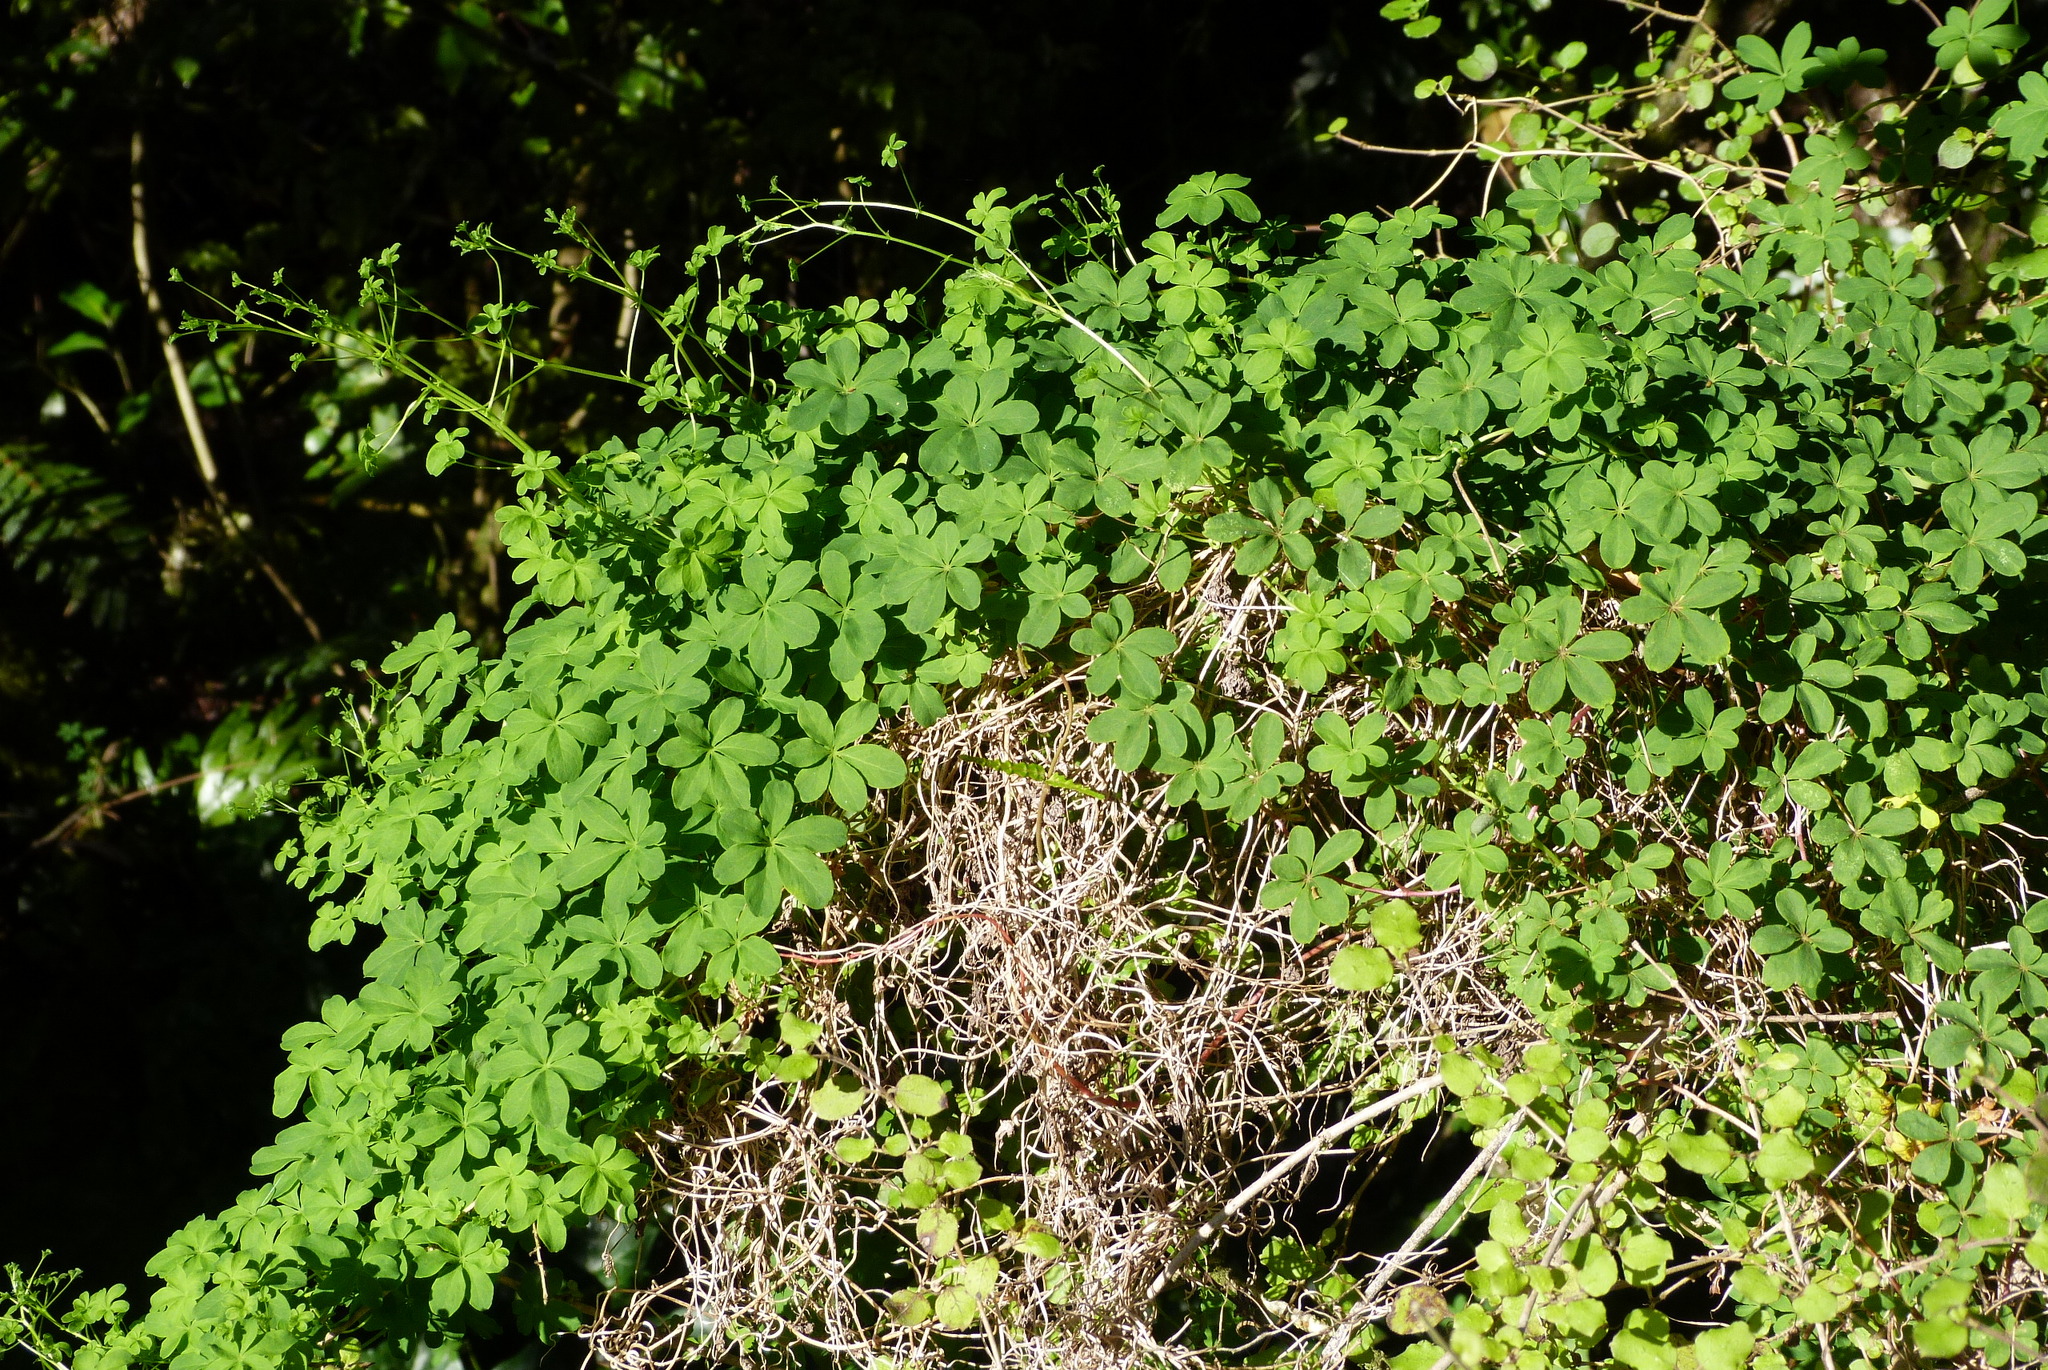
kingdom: Plantae
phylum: Tracheophyta
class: Magnoliopsida
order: Brassicales
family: Tropaeolaceae
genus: Tropaeolum
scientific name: Tropaeolum speciosum
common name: Flame nasturtium
